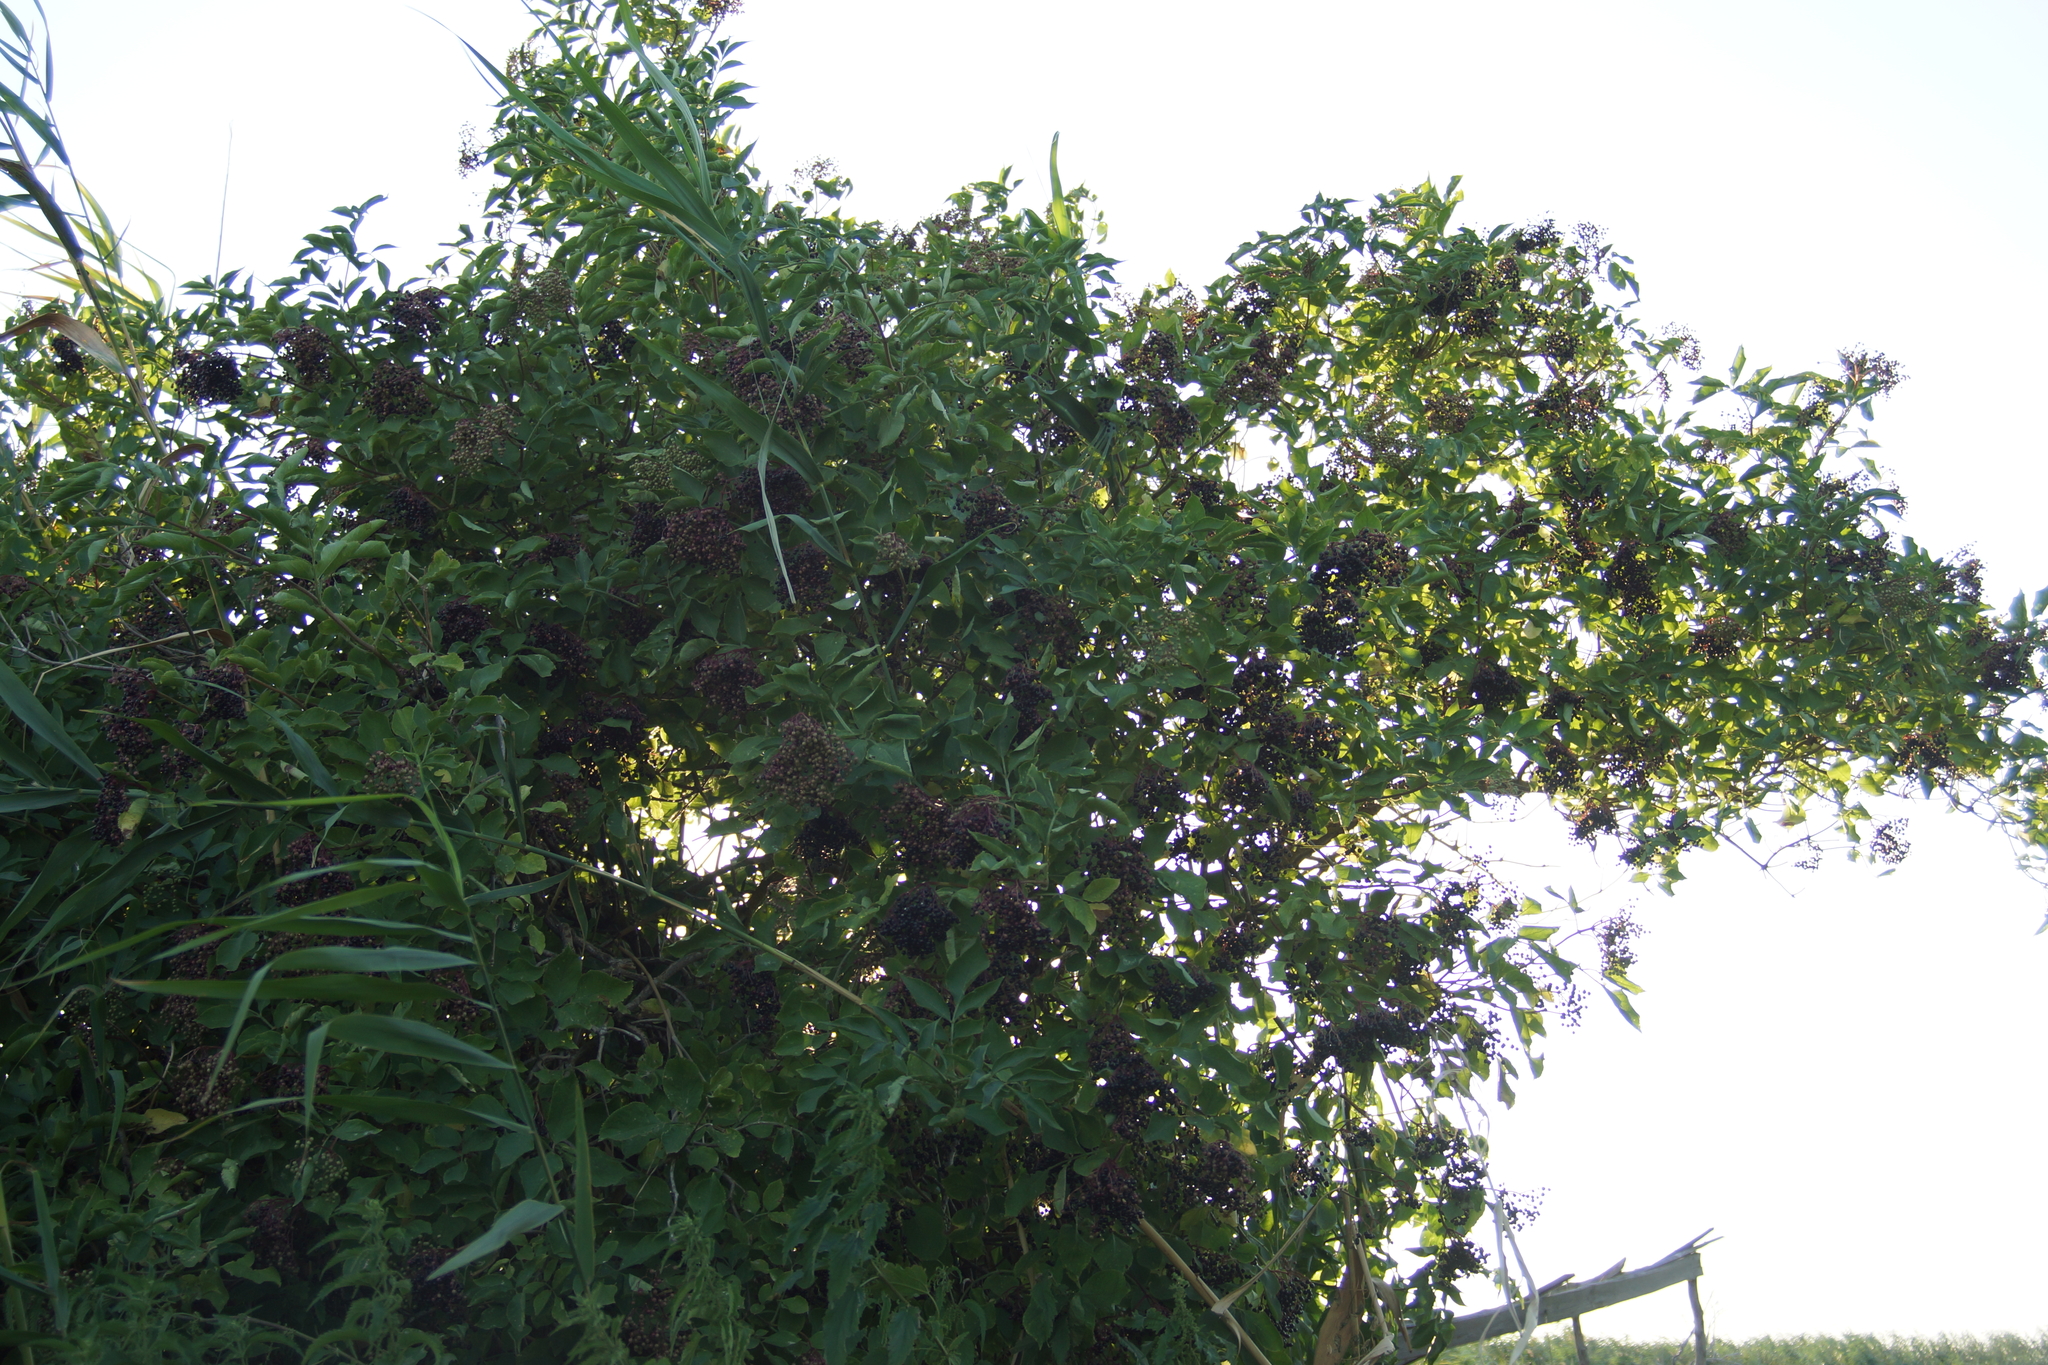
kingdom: Plantae
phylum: Tracheophyta
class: Magnoliopsida
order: Dipsacales
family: Viburnaceae
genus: Sambucus
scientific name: Sambucus nigra
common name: Elder
